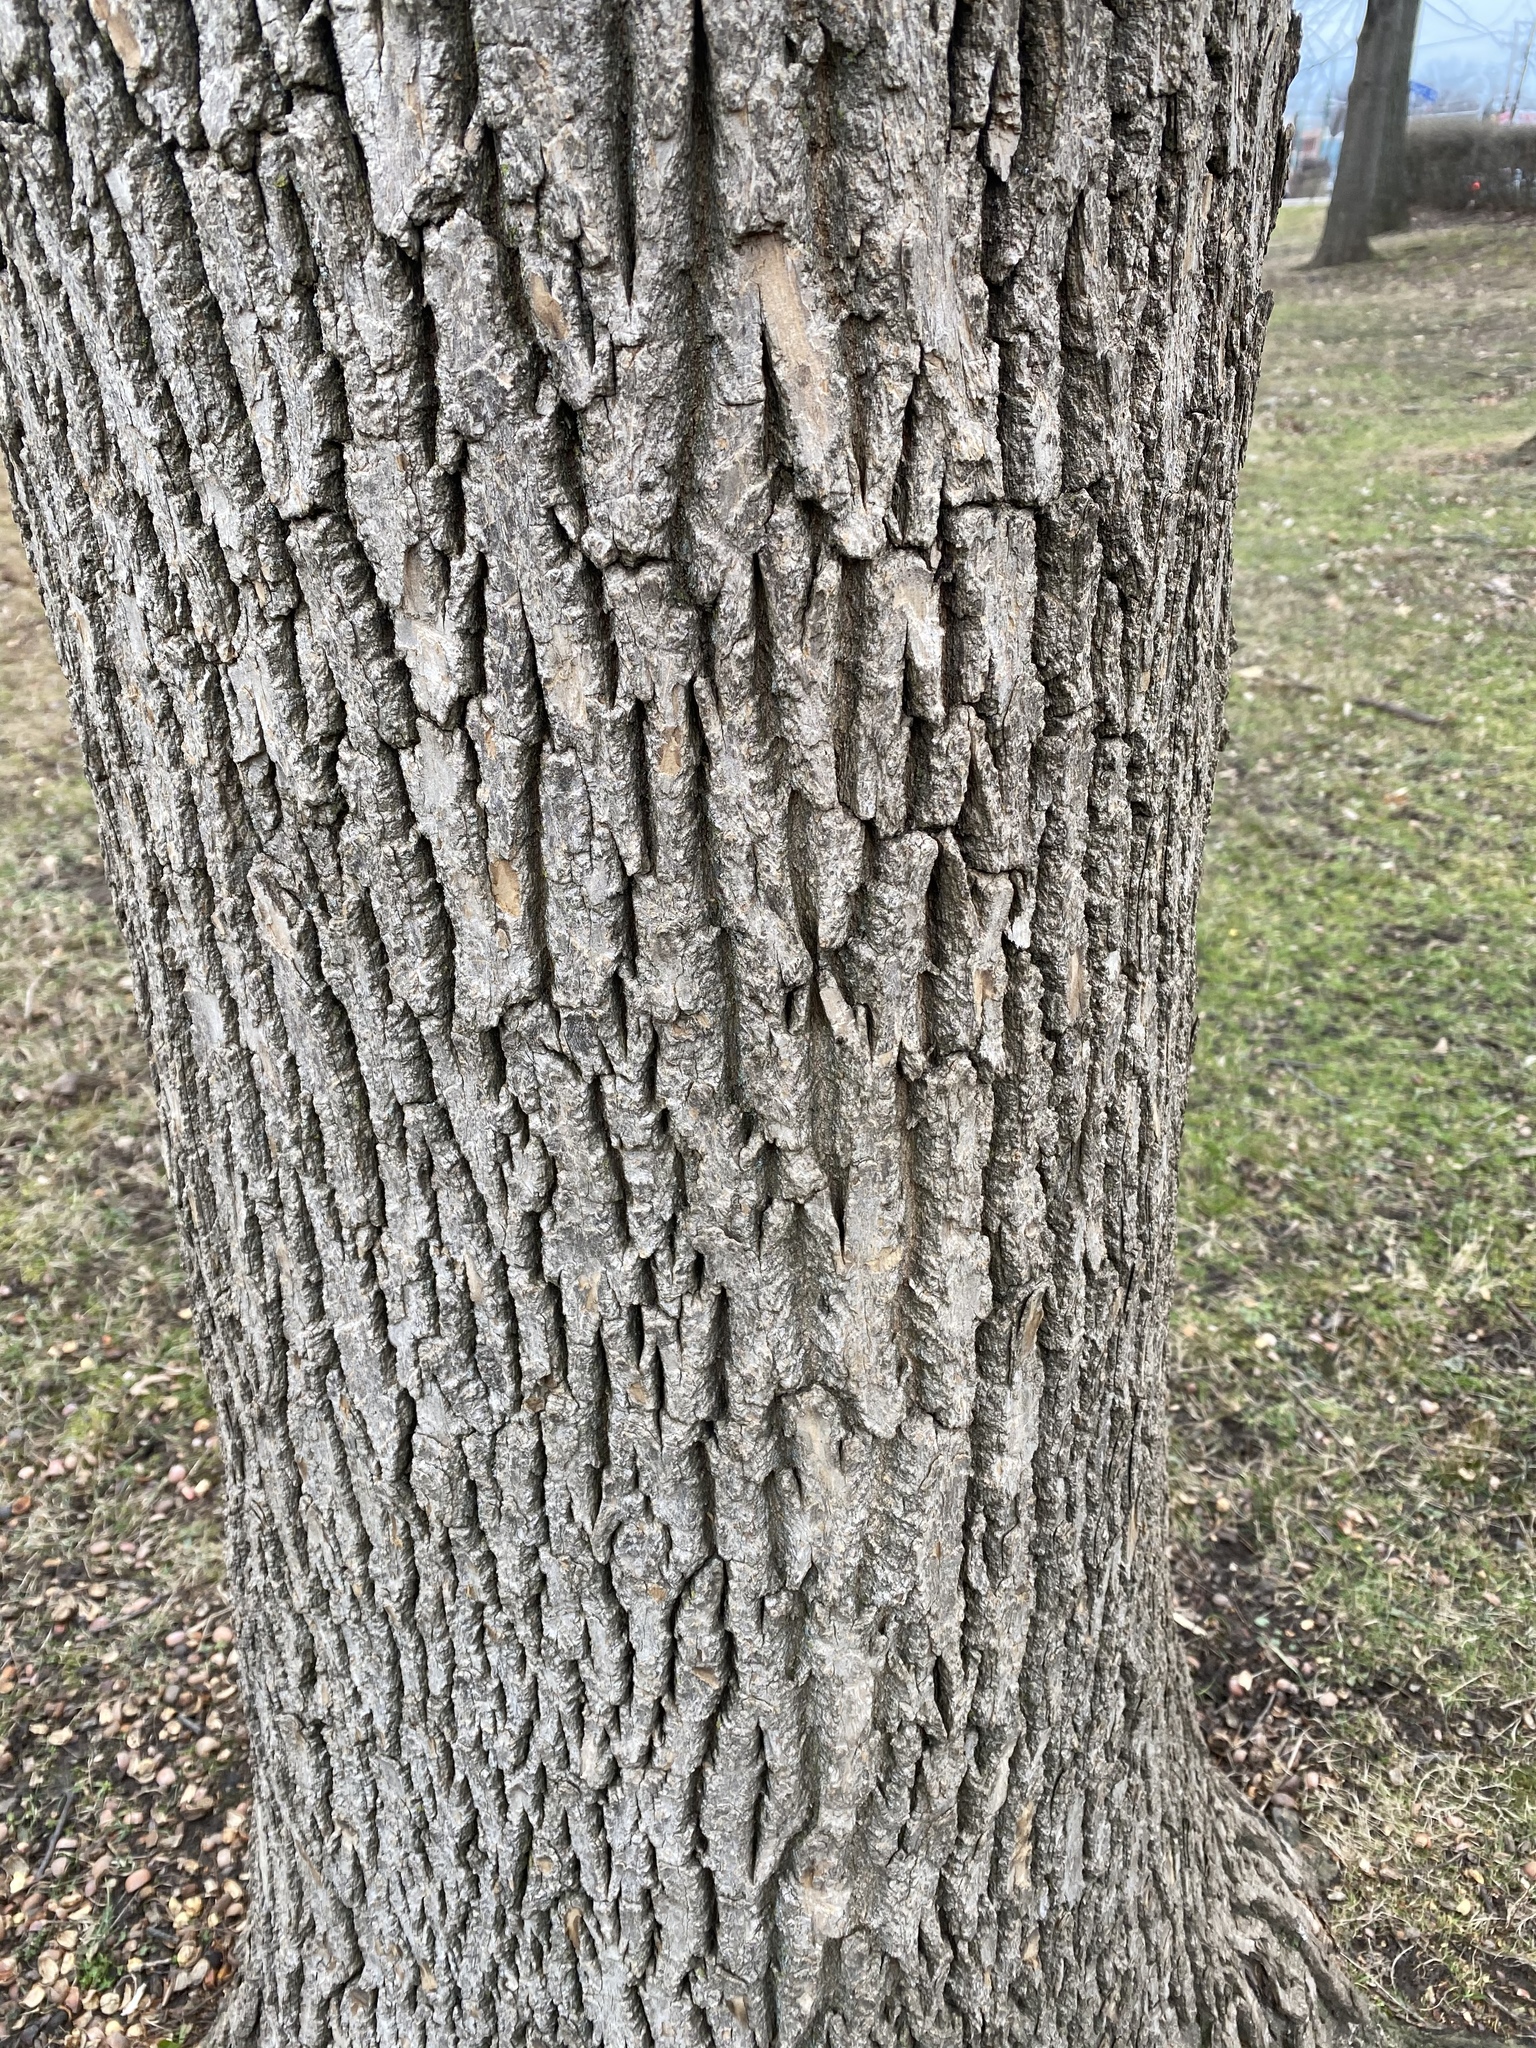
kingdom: Plantae
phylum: Tracheophyta
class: Magnoliopsida
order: Lamiales
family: Oleaceae
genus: Fraxinus
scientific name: Fraxinus americana
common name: White ash
